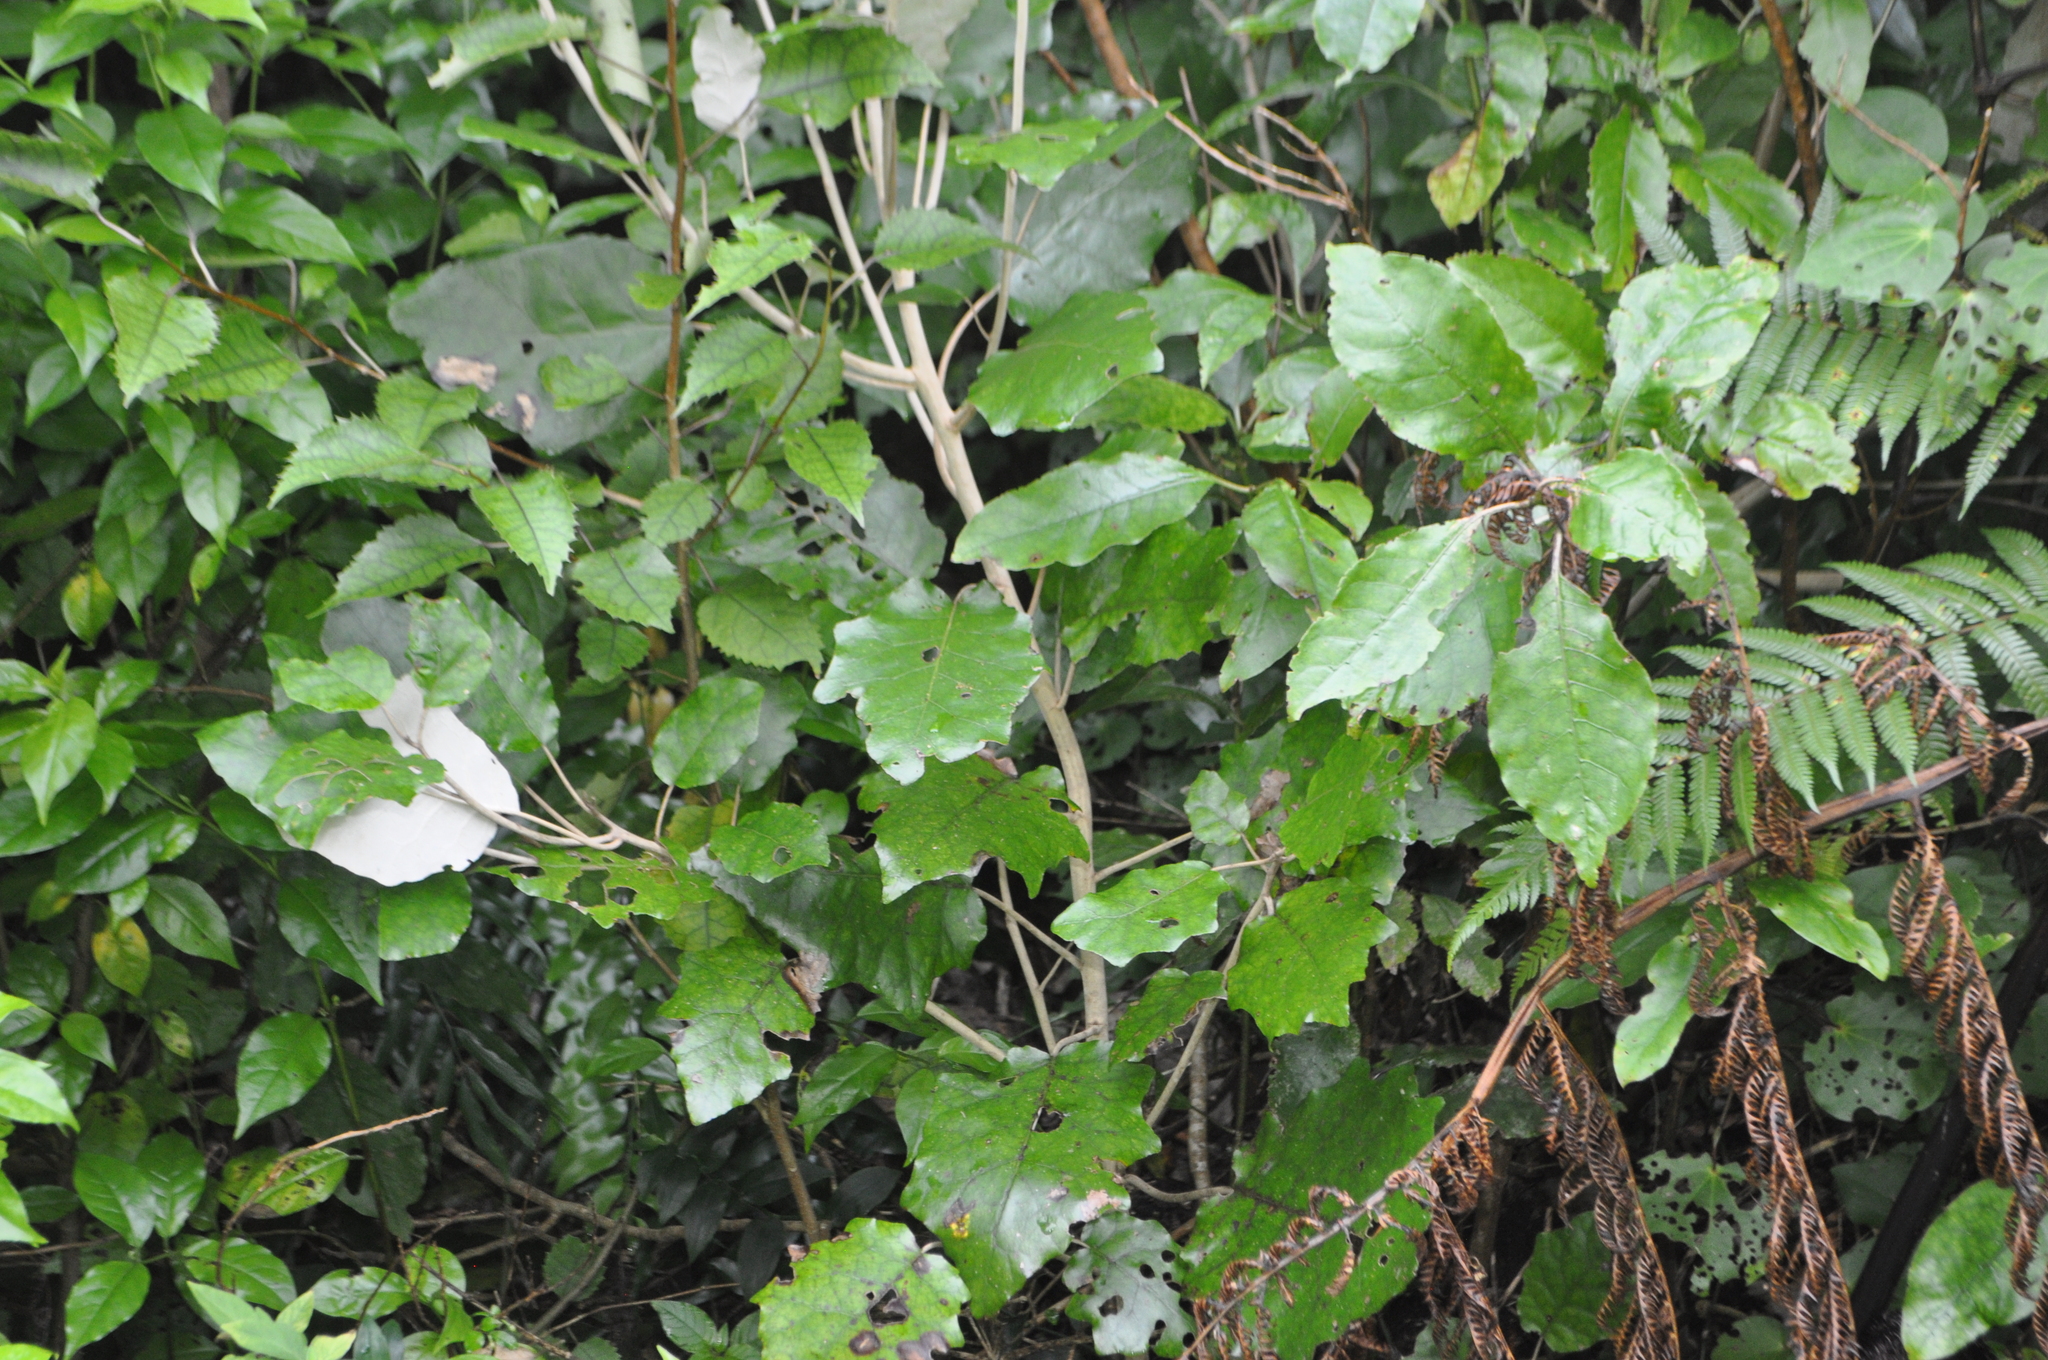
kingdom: Plantae
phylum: Tracheophyta
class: Magnoliopsida
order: Asterales
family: Asteraceae
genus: Brachyglottis
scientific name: Brachyglottis repanda
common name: Hedge ragwort
